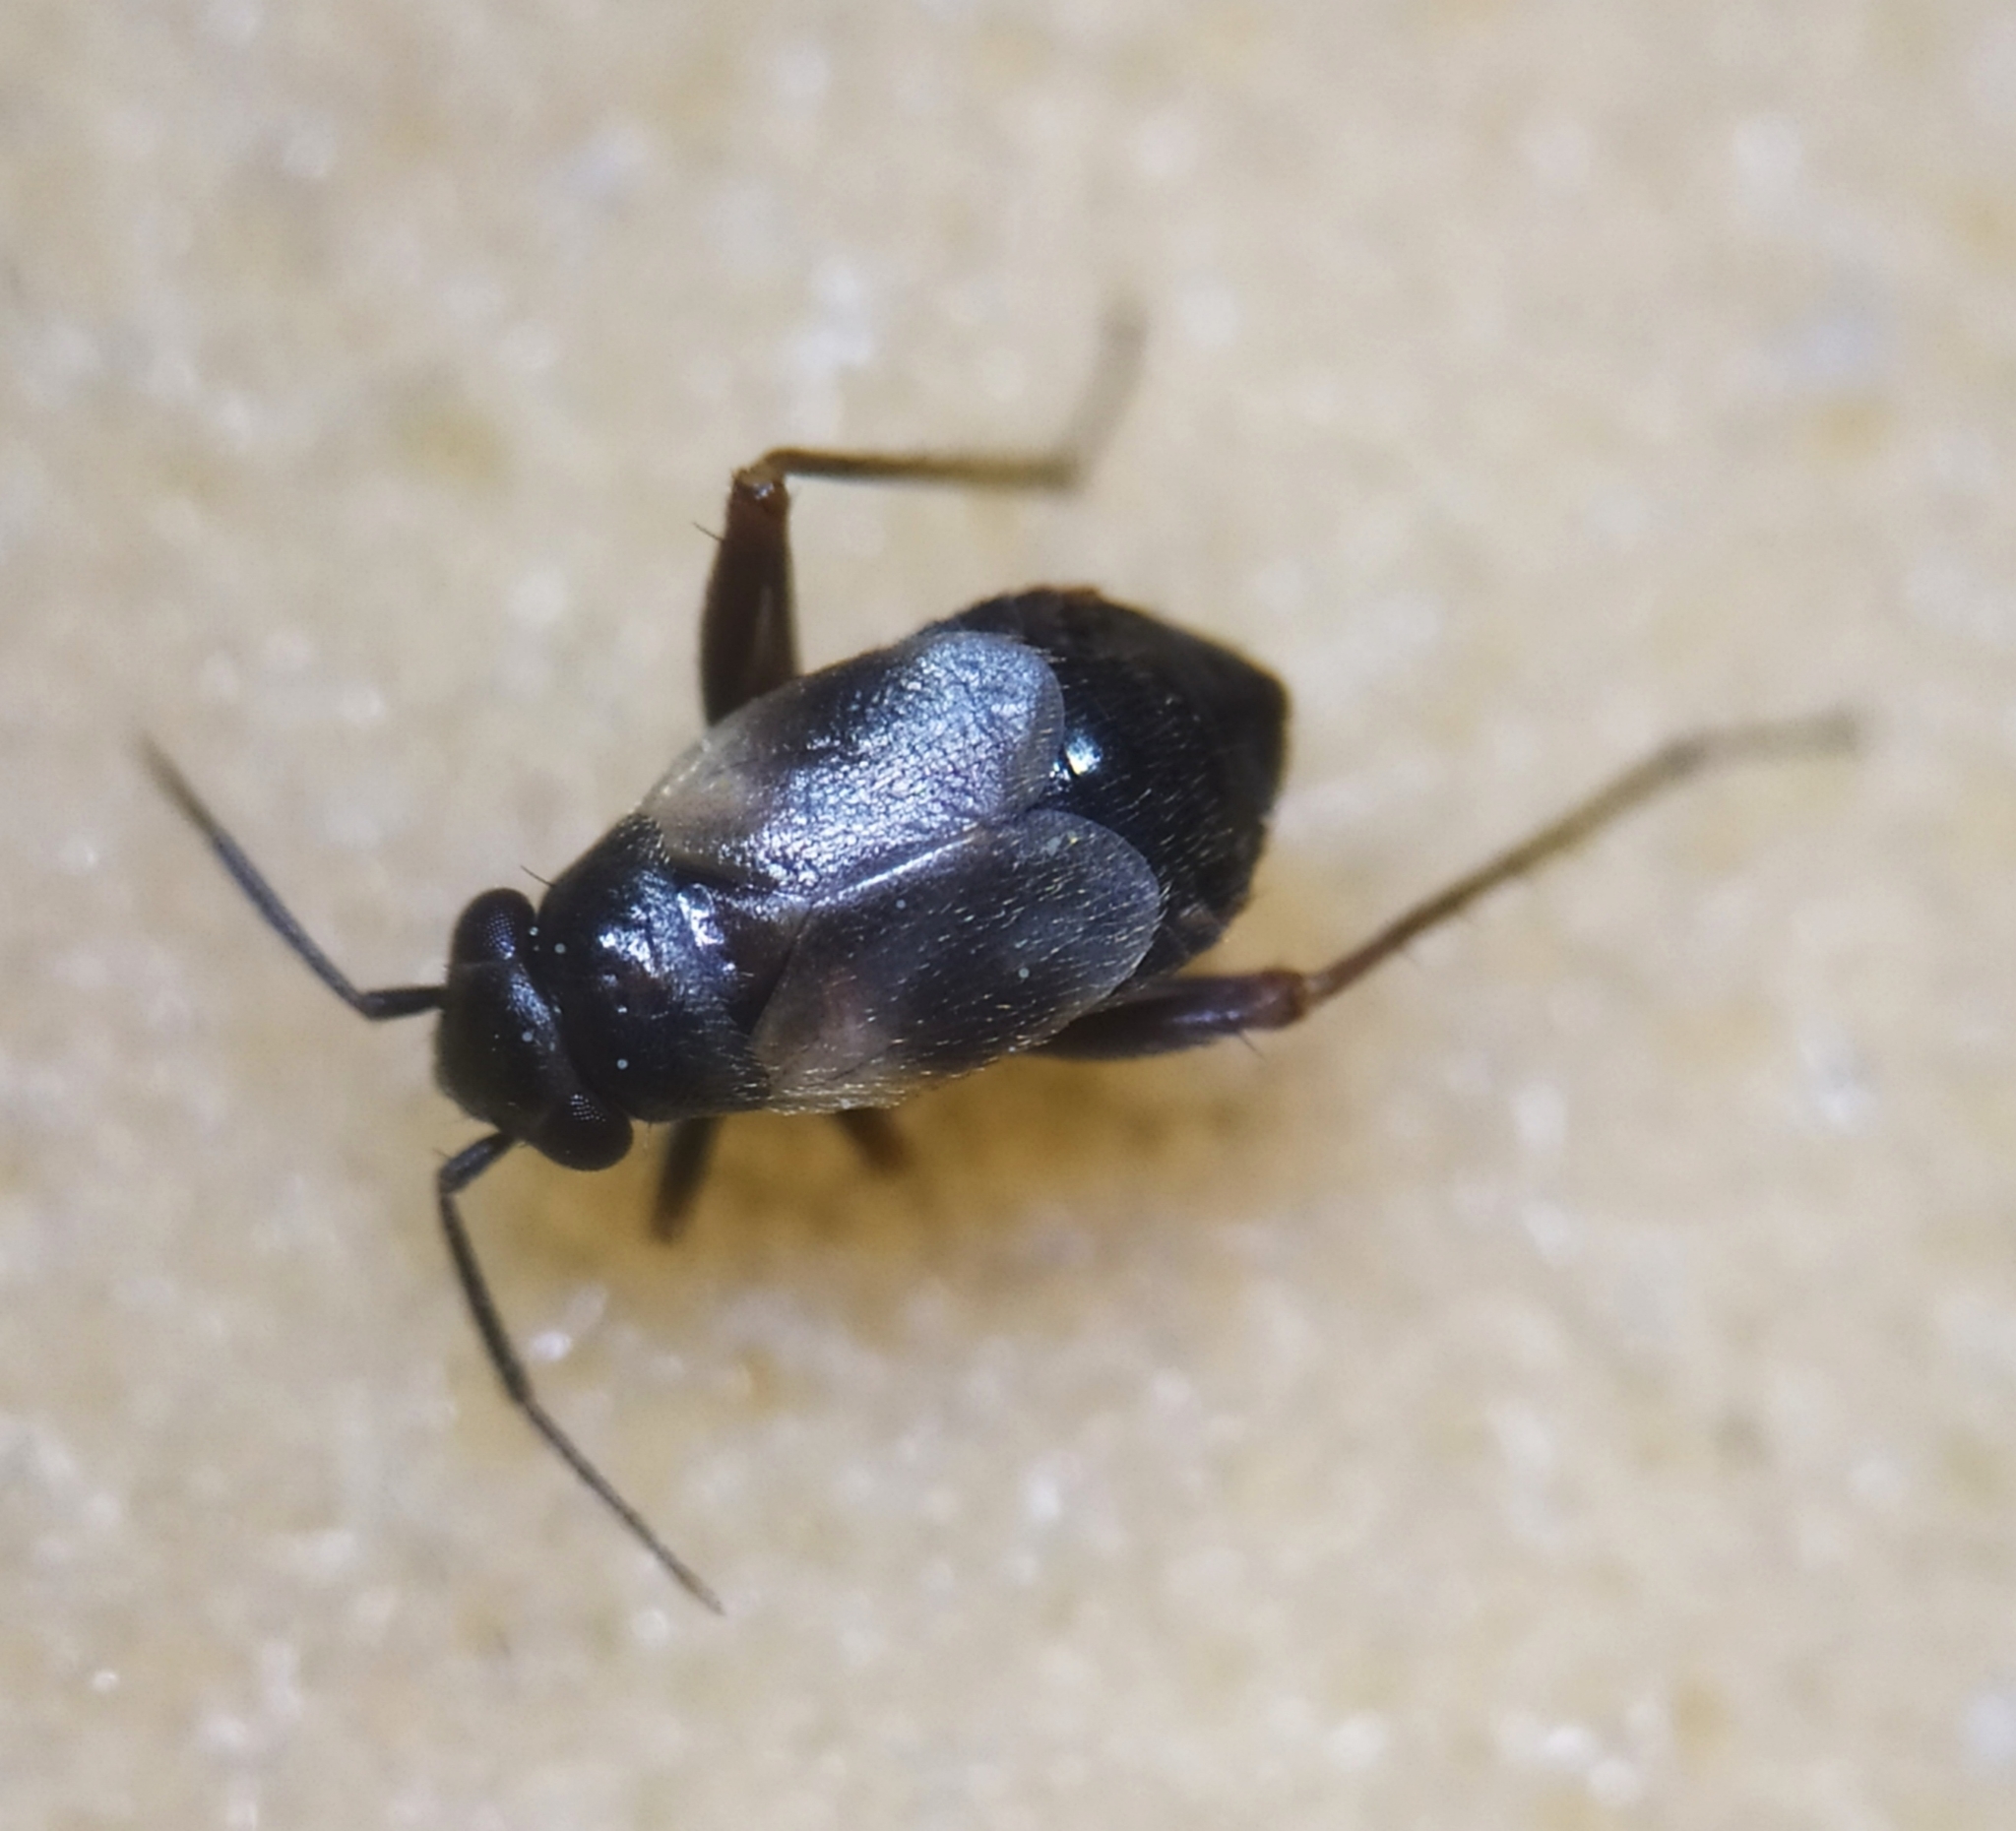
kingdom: Animalia
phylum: Arthropoda
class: Insecta
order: Hemiptera
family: Miridae
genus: Chlamydatus
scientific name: Chlamydatus saltitans
